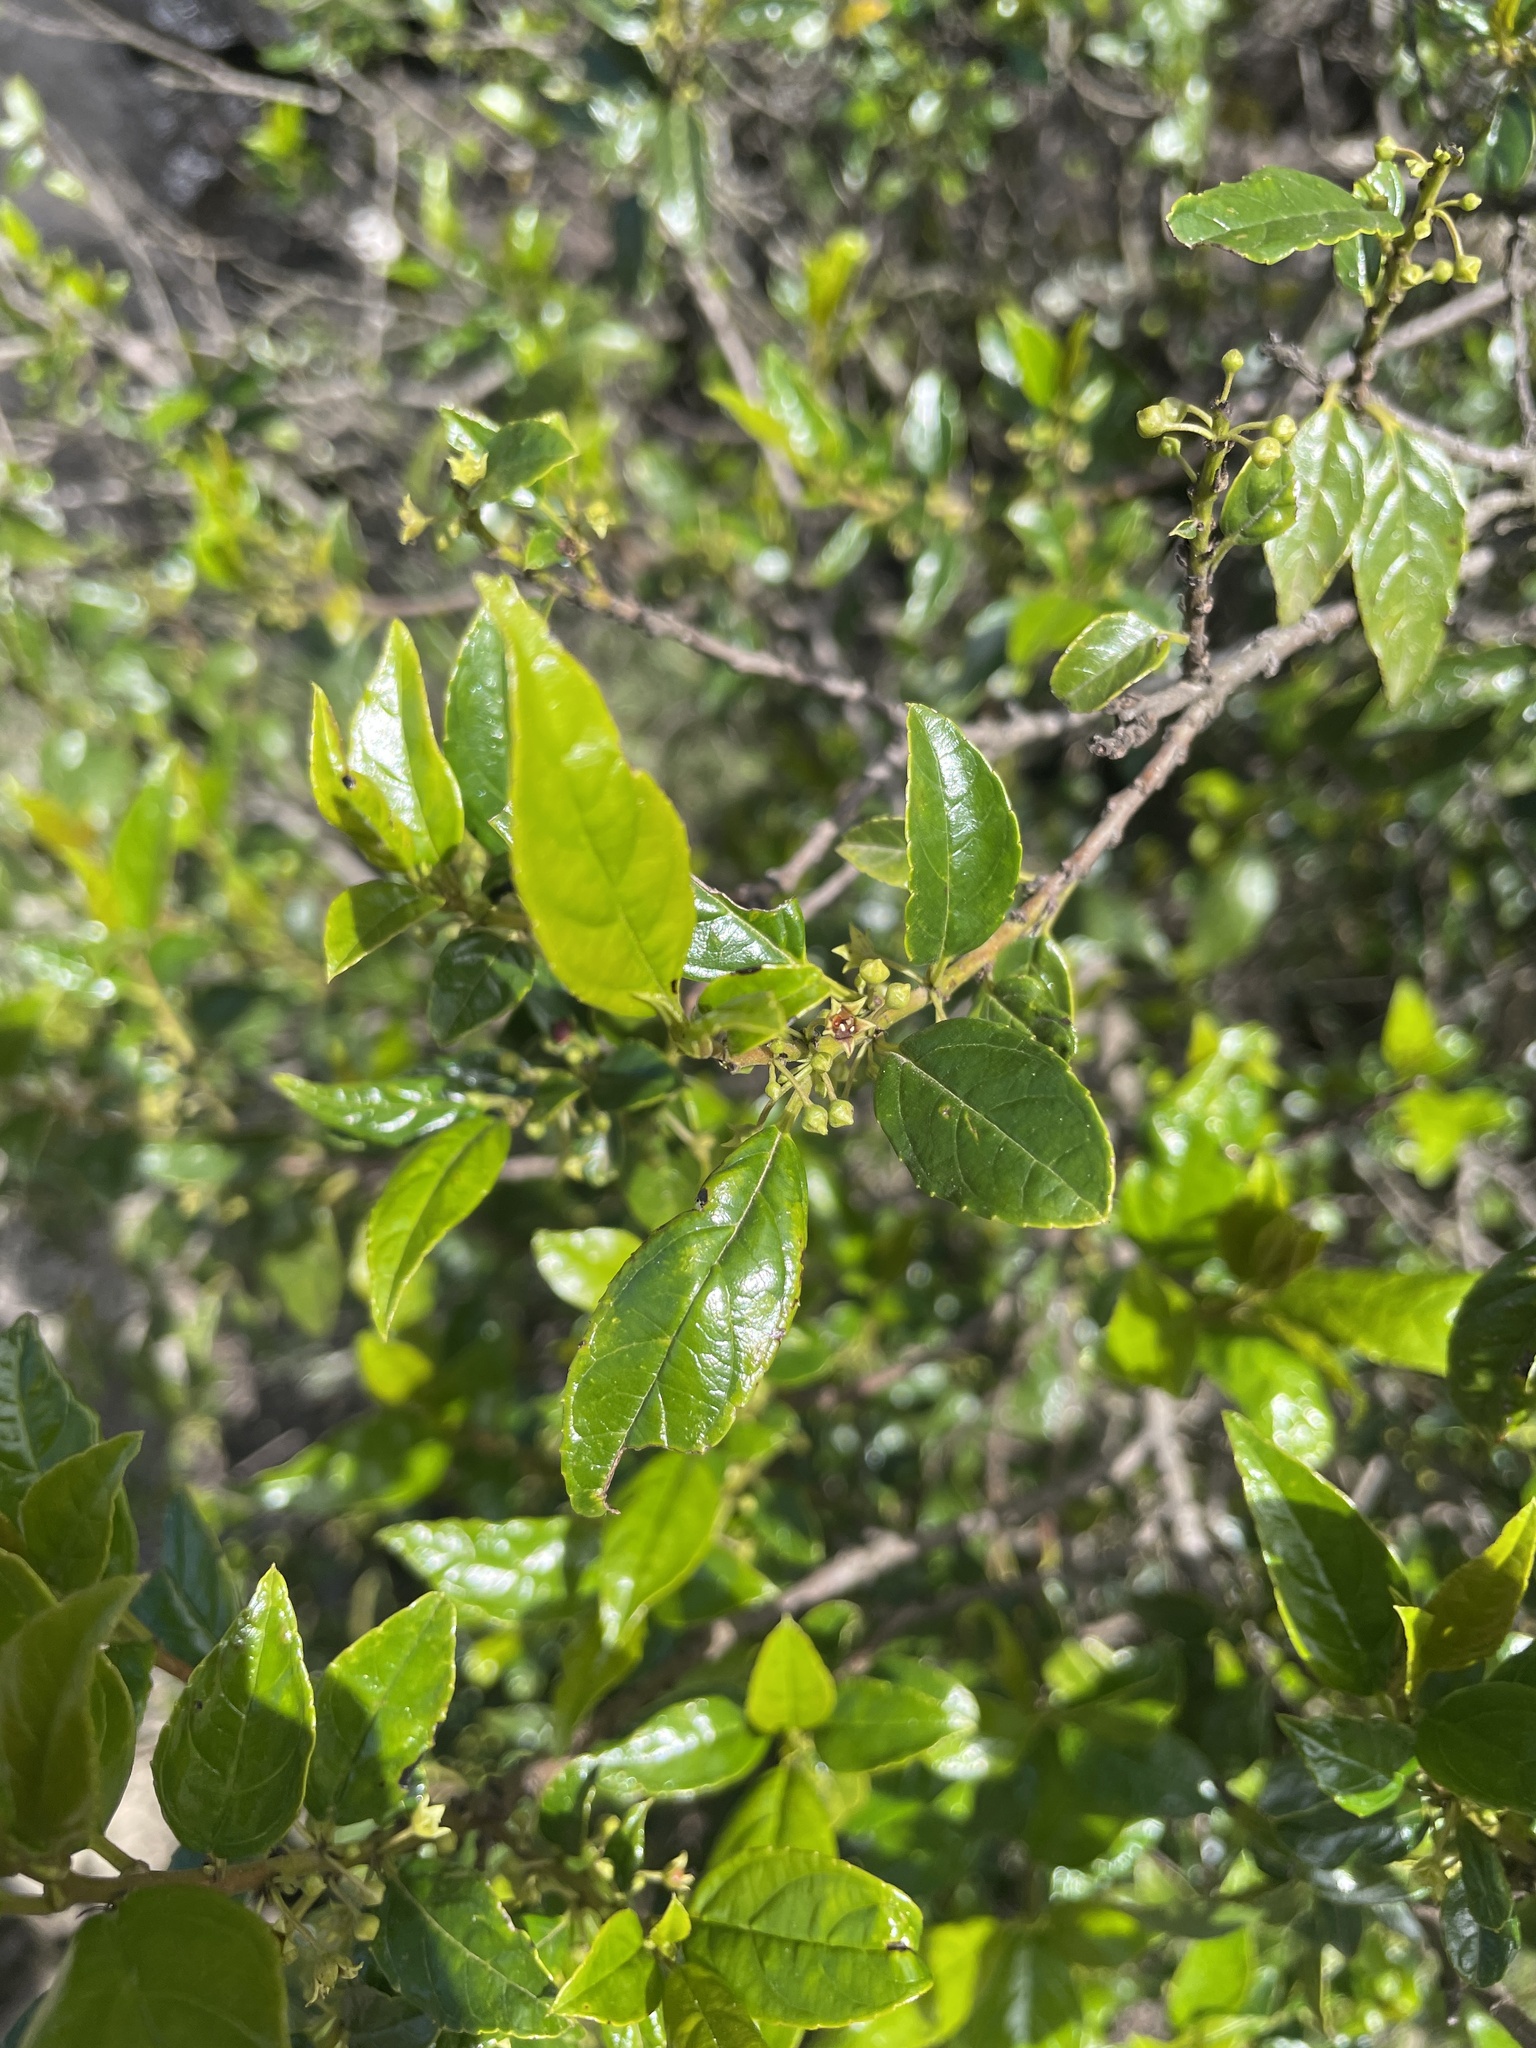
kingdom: Plantae
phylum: Tracheophyta
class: Magnoliopsida
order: Rosales
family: Rhamnaceae
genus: Rhamnus
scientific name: Rhamnus prinoides
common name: Dogwood
